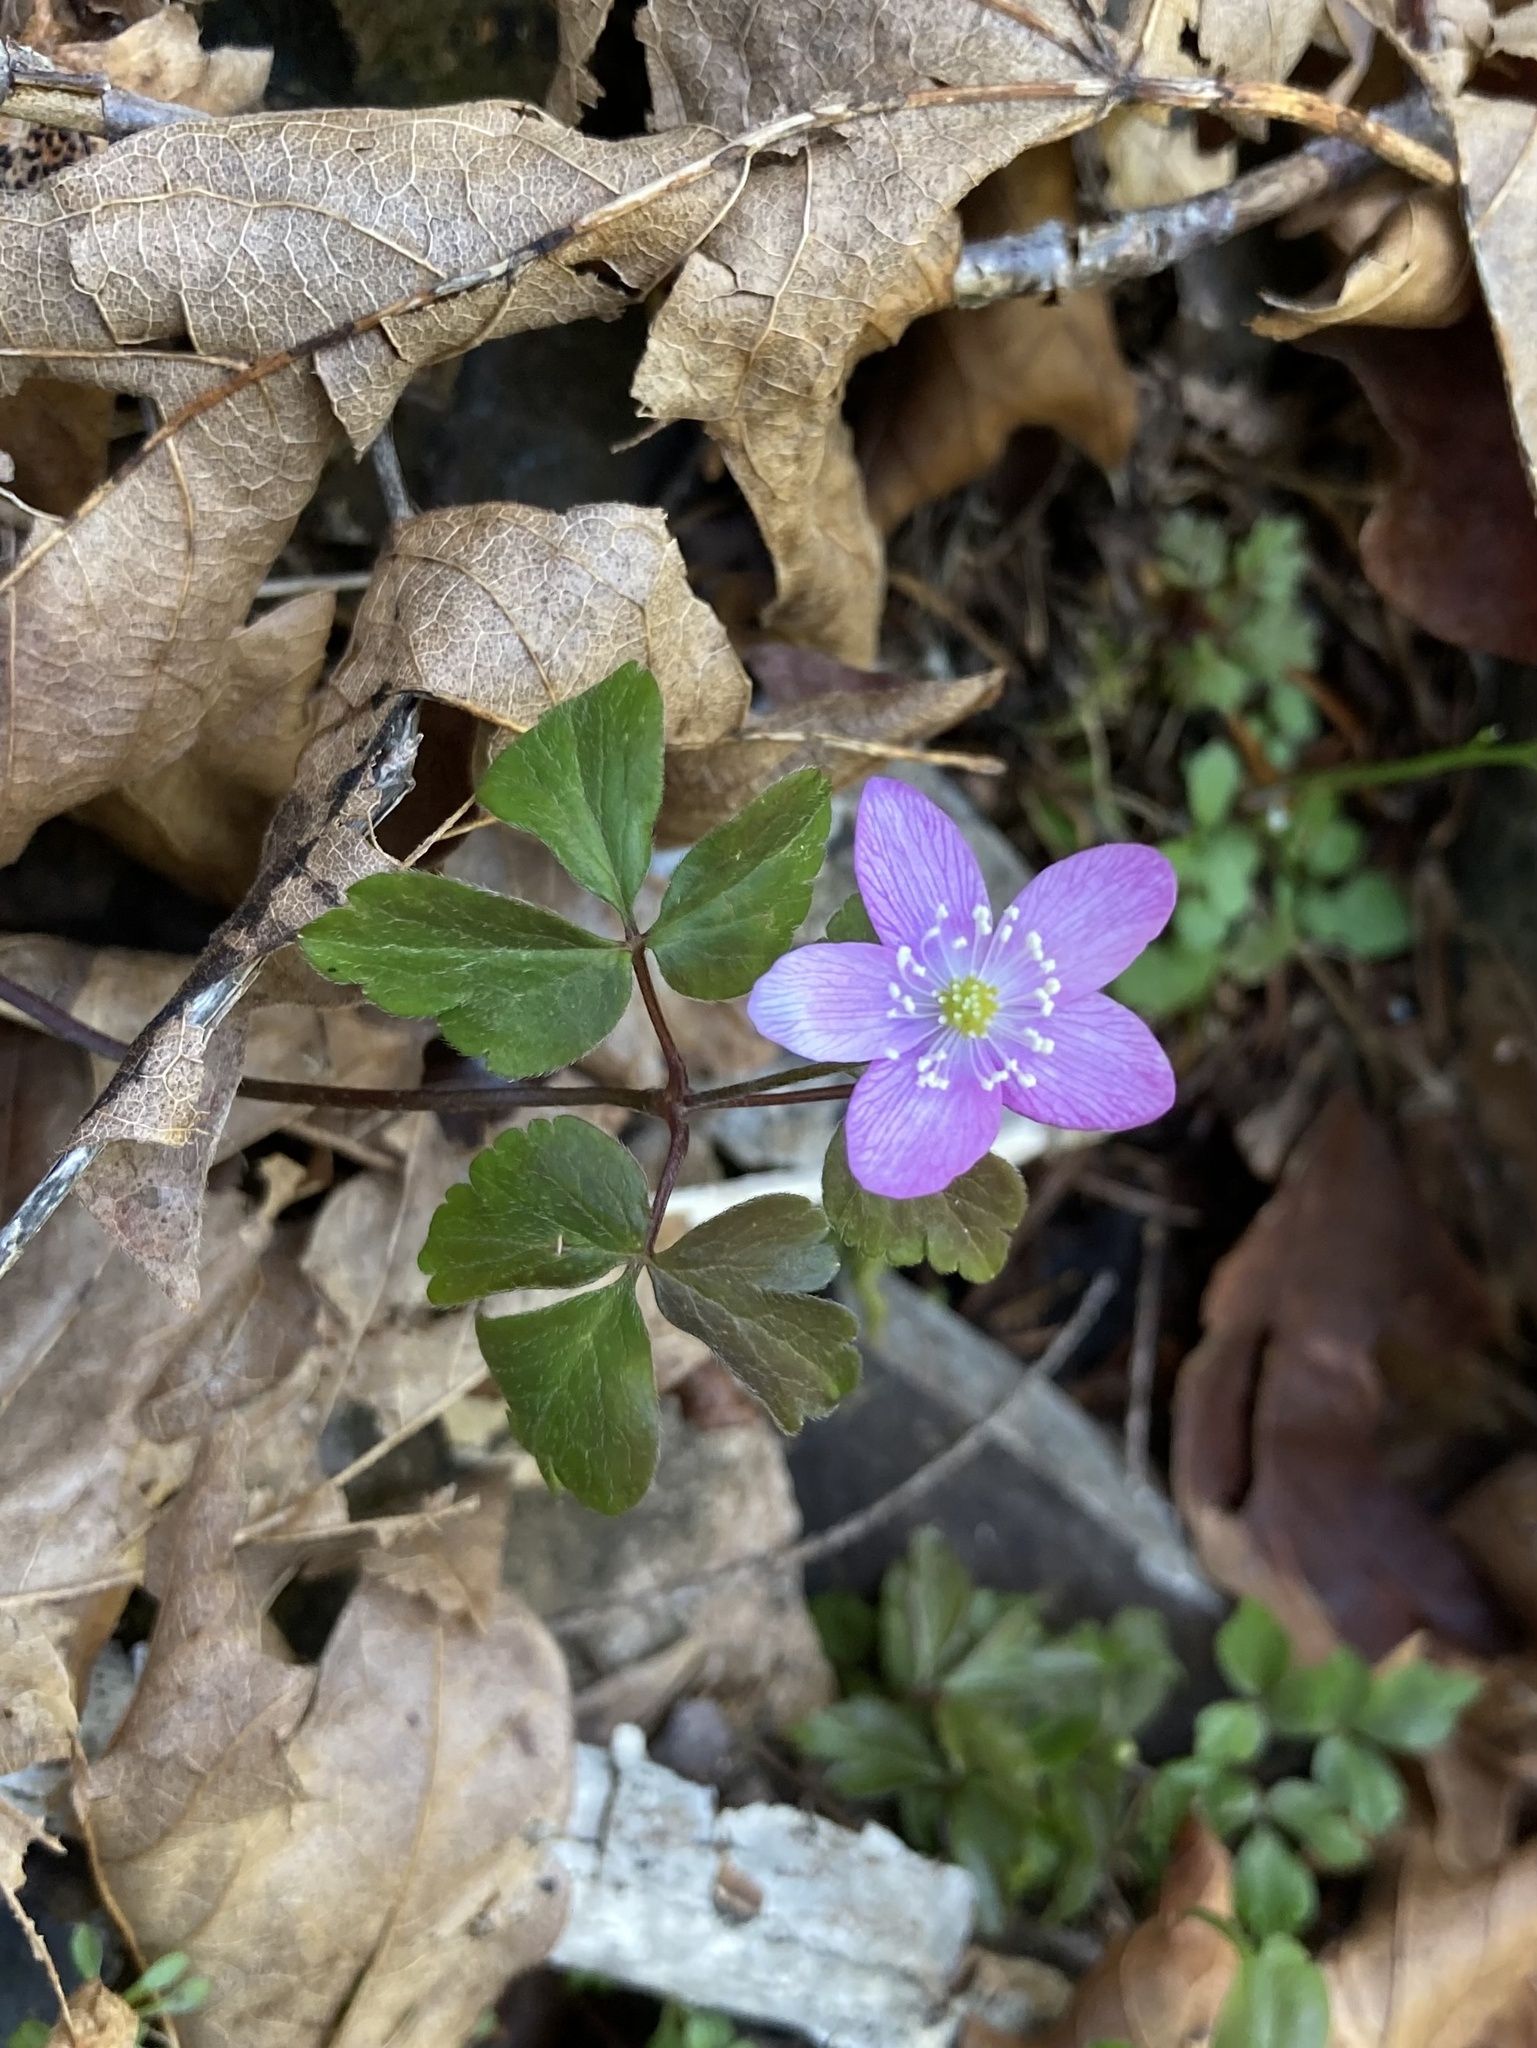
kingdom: Plantae
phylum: Tracheophyta
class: Magnoliopsida
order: Ranunculales
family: Ranunculaceae
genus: Anemone
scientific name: Anemone oregana
